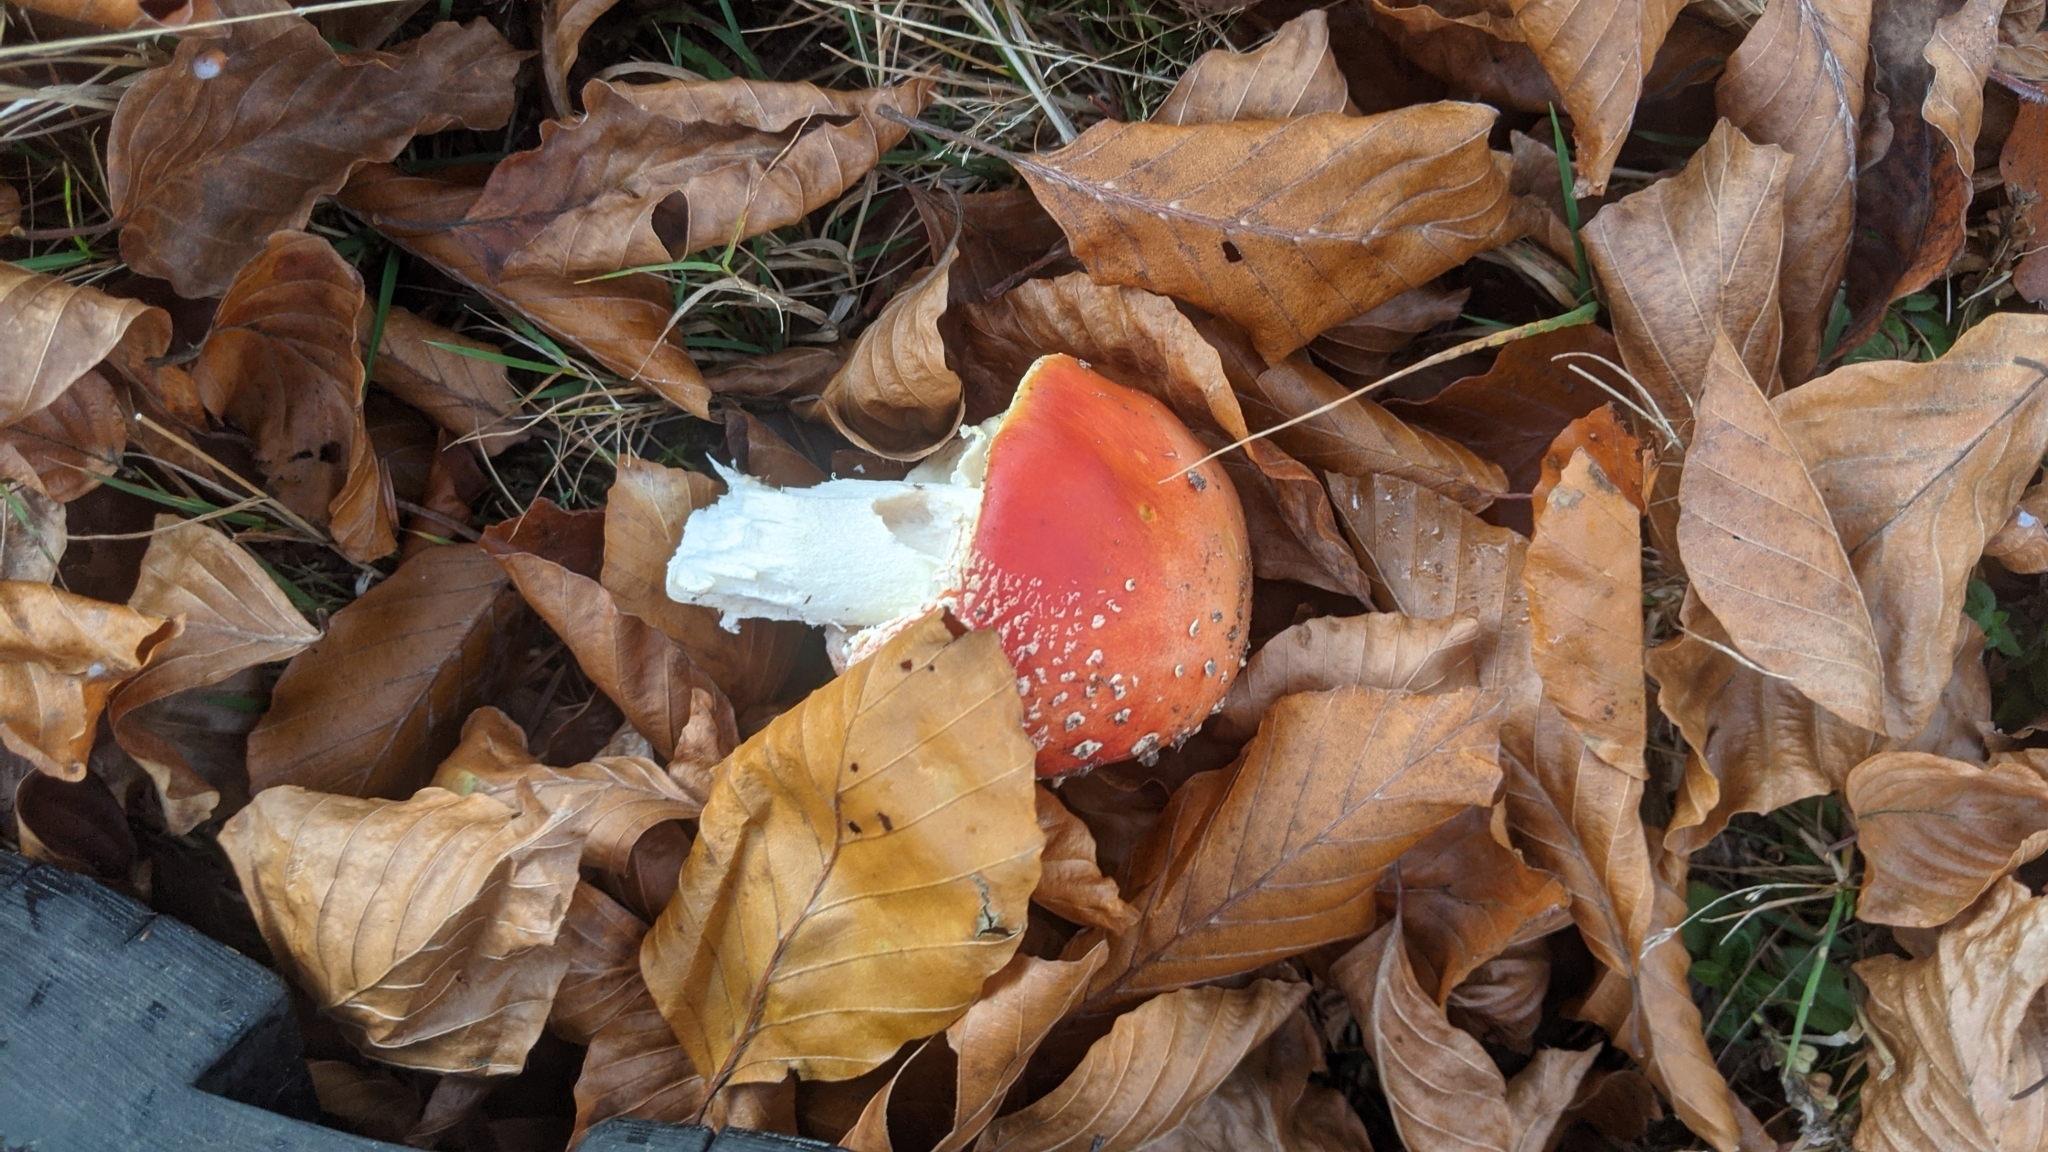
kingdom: Fungi
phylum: Basidiomycota
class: Agaricomycetes
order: Agaricales
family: Amanitaceae
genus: Amanita
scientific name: Amanita muscaria
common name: Fly agaric
